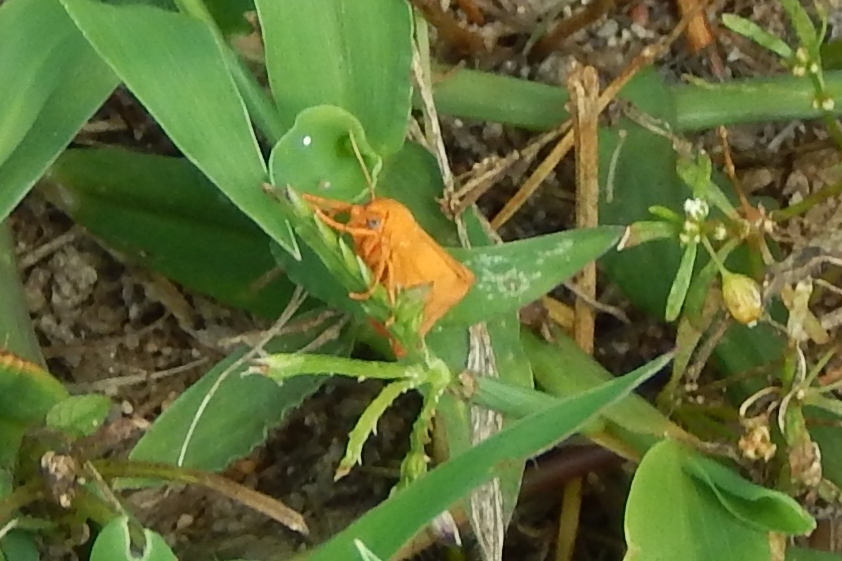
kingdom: Animalia
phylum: Arthropoda
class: Insecta
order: Lepidoptera
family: Erebidae
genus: Virbia
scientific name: Virbia
